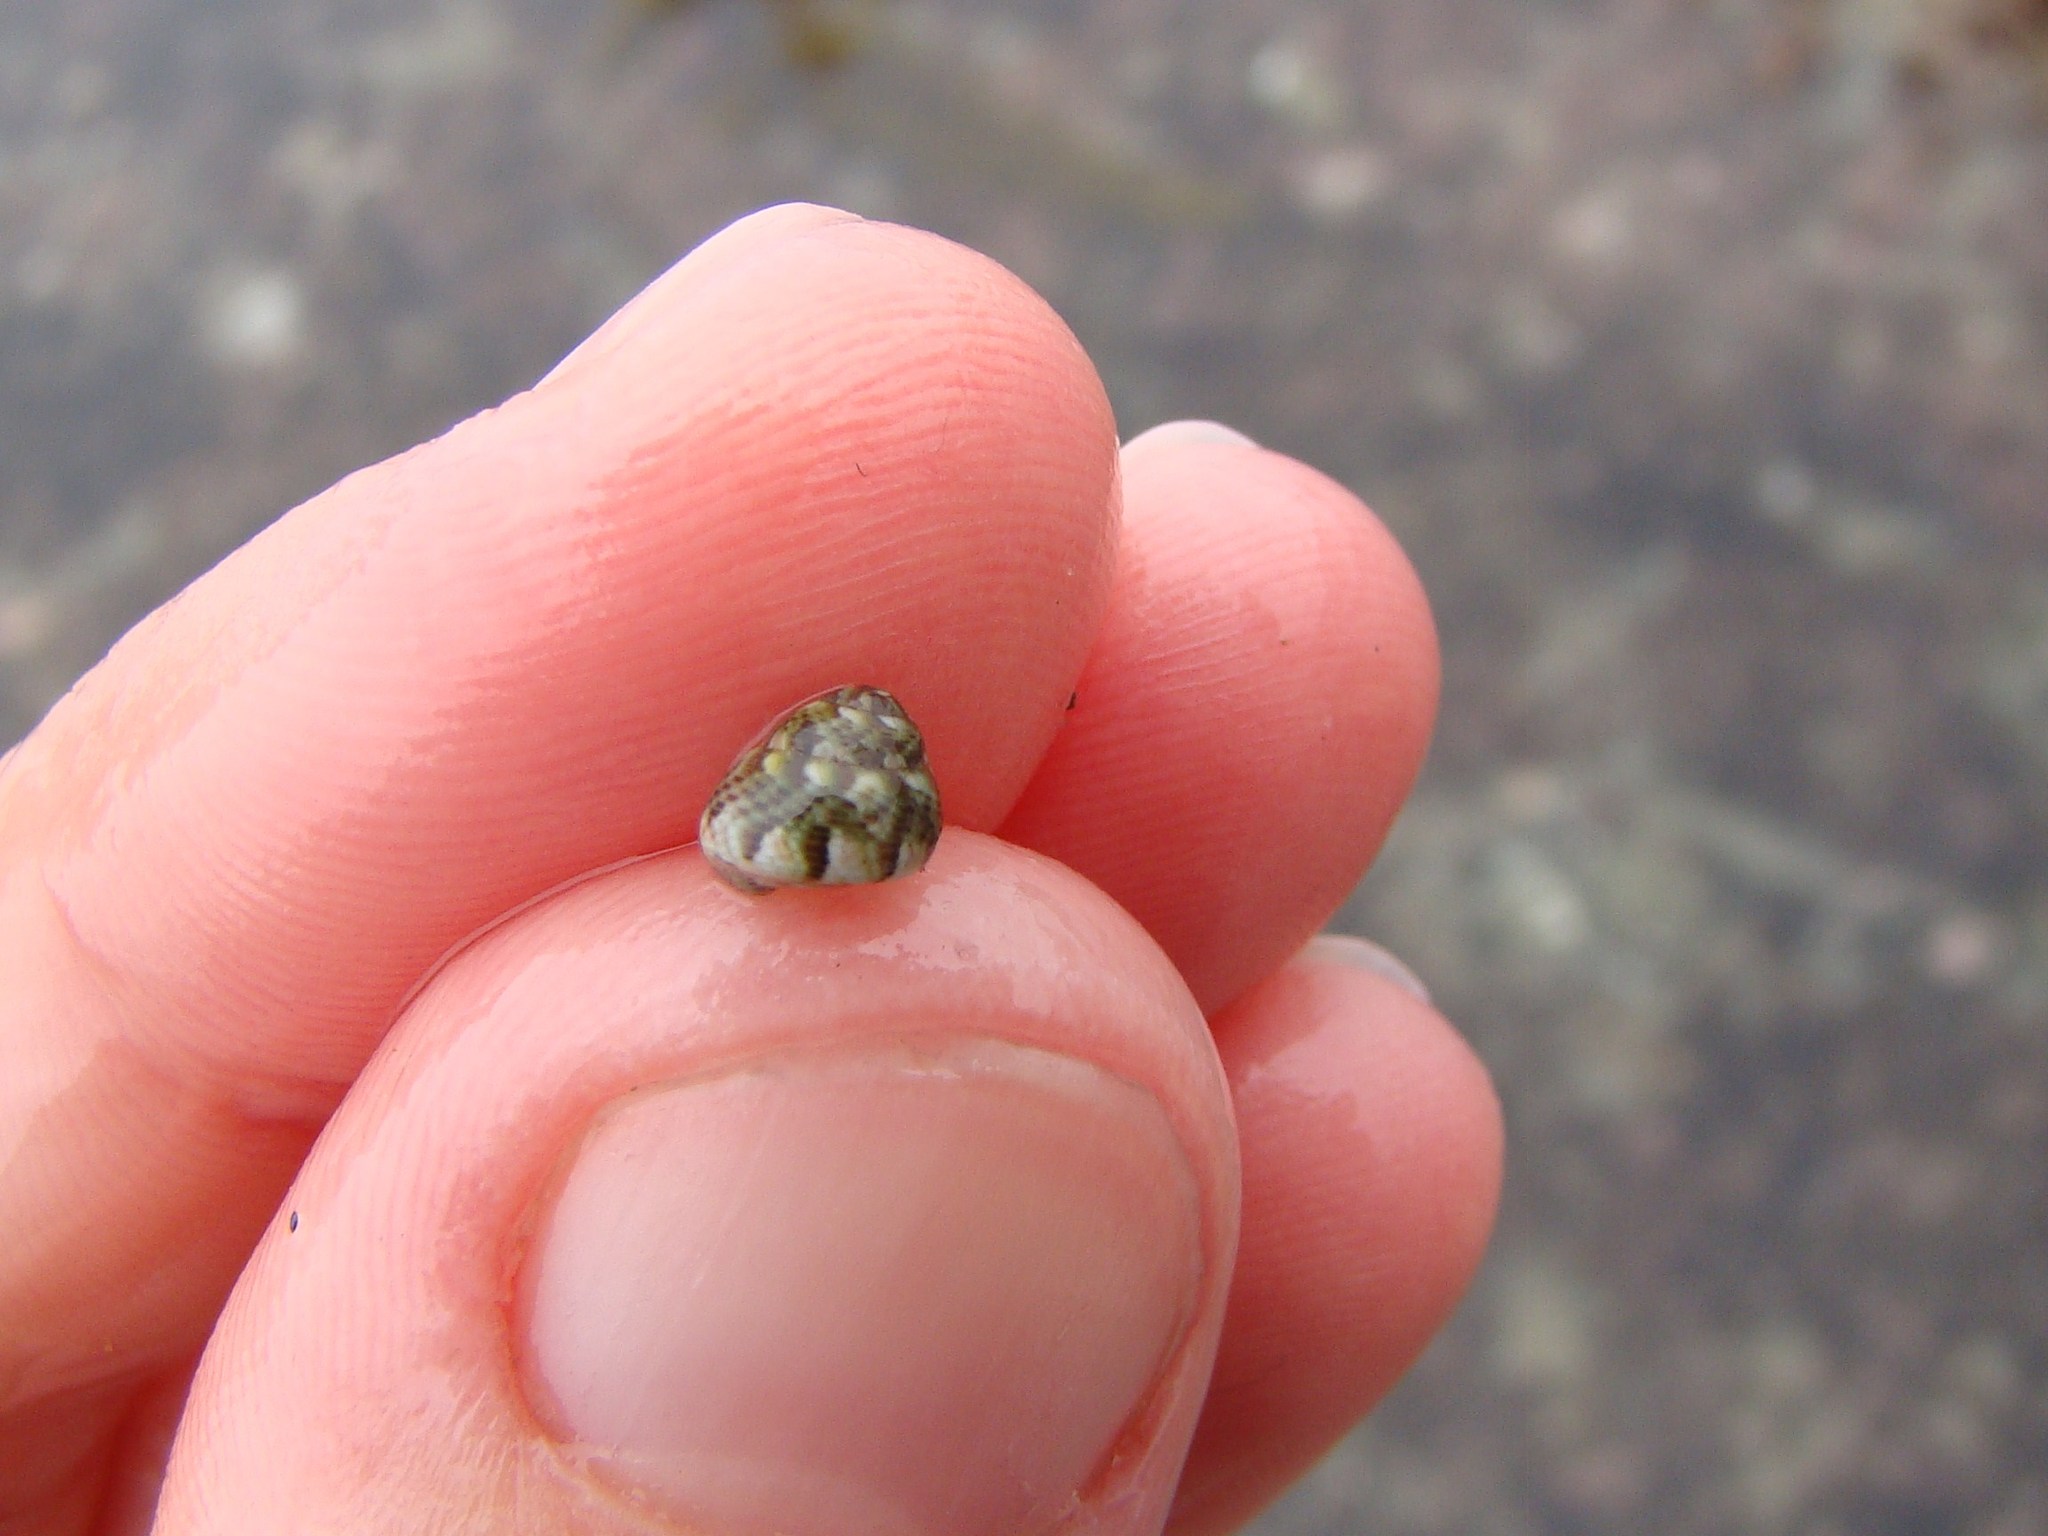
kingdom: Animalia
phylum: Mollusca
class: Gastropoda
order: Trochida
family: Trochidae
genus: Micrelenchus
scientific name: Micrelenchus tessellatus
